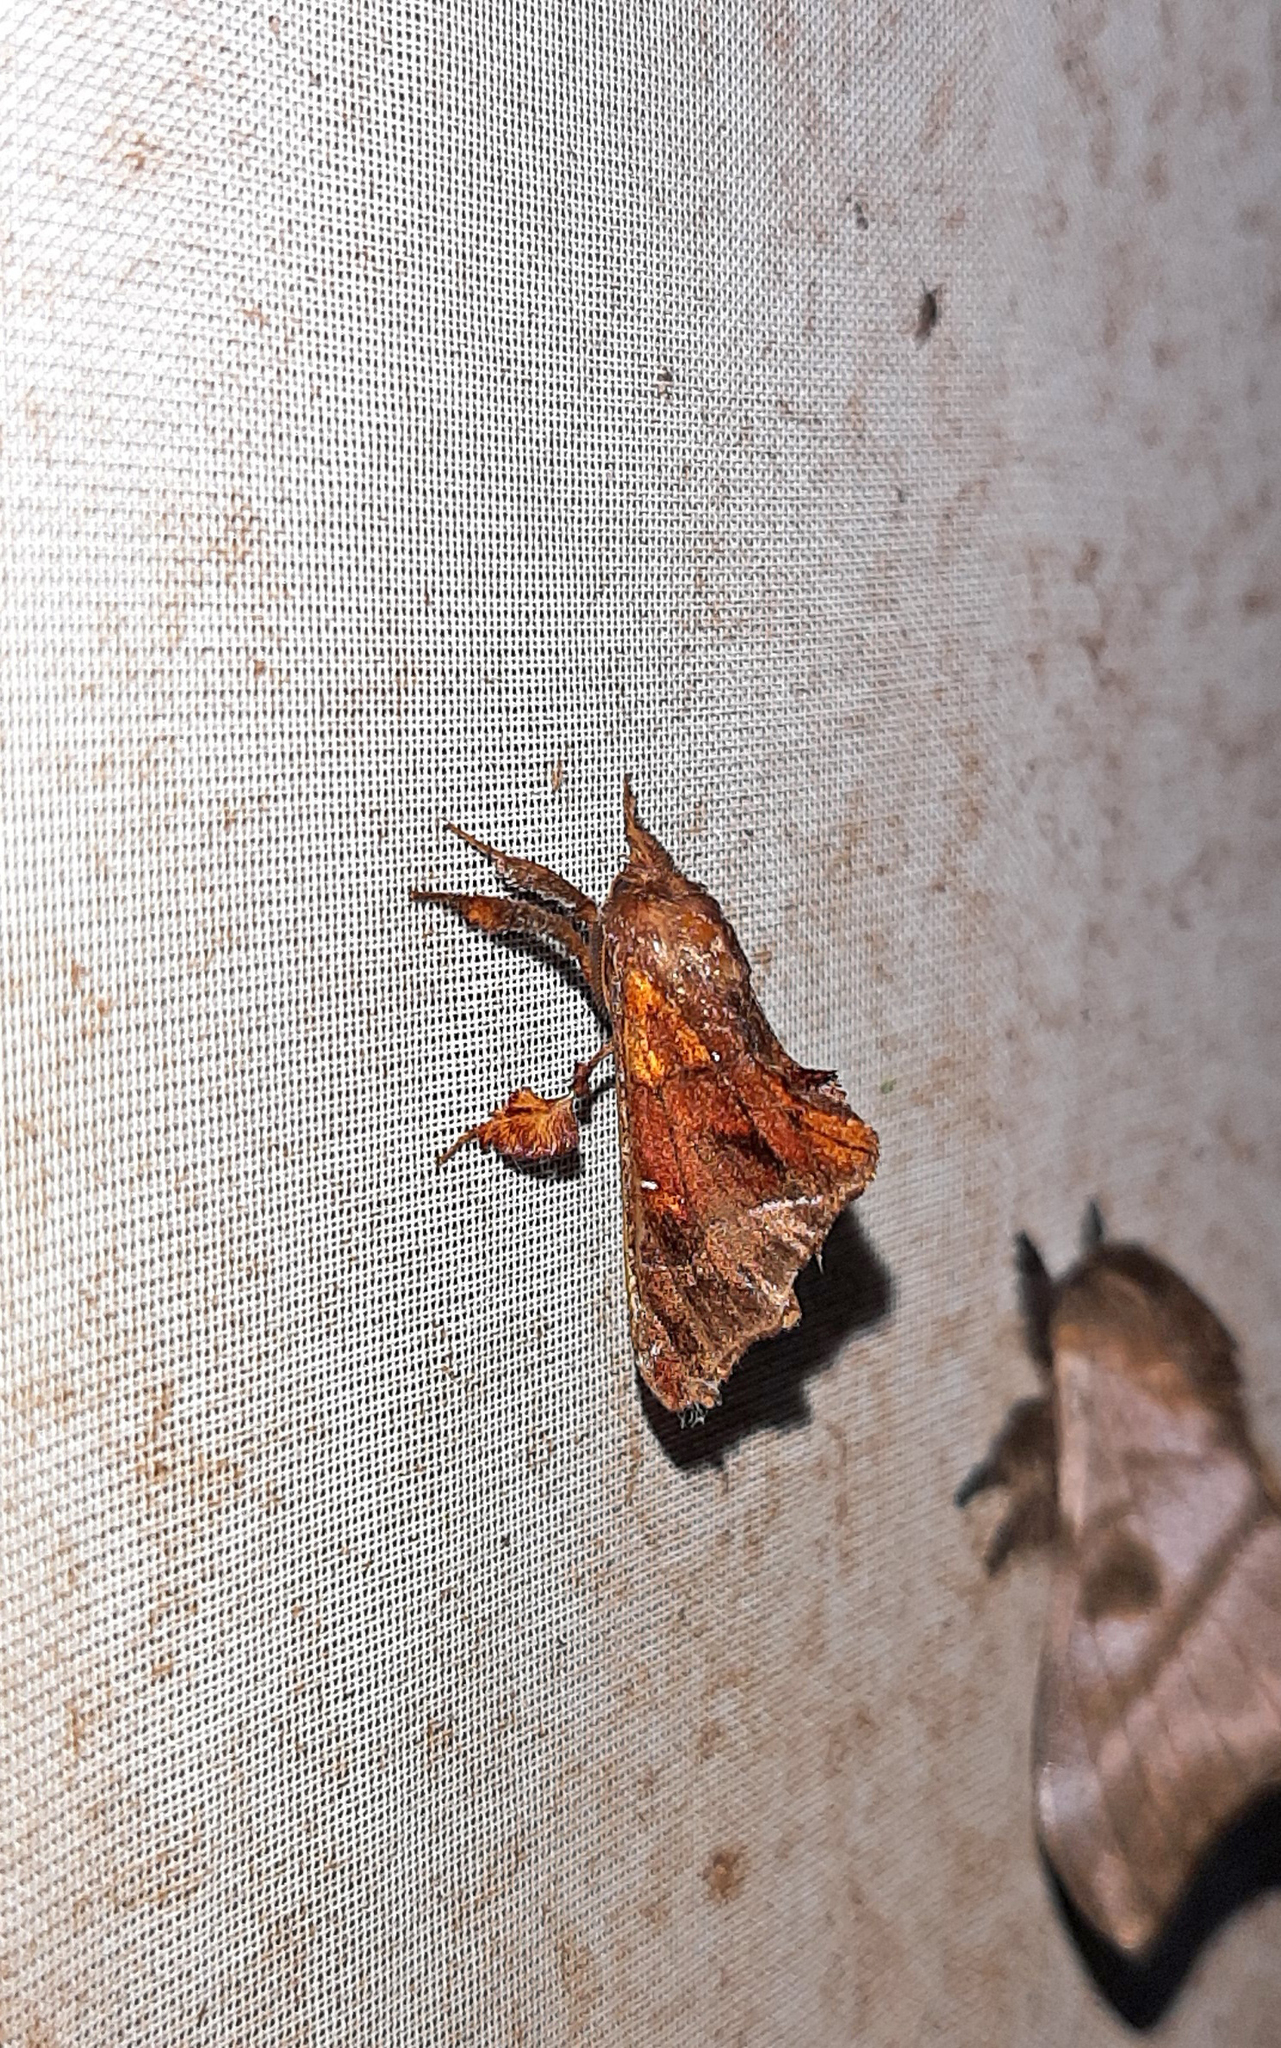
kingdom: Animalia
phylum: Arthropoda
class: Insecta
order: Lepidoptera
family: Apatelodidae
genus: Thyrioclostera
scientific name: Thyrioclostera trespuntada
